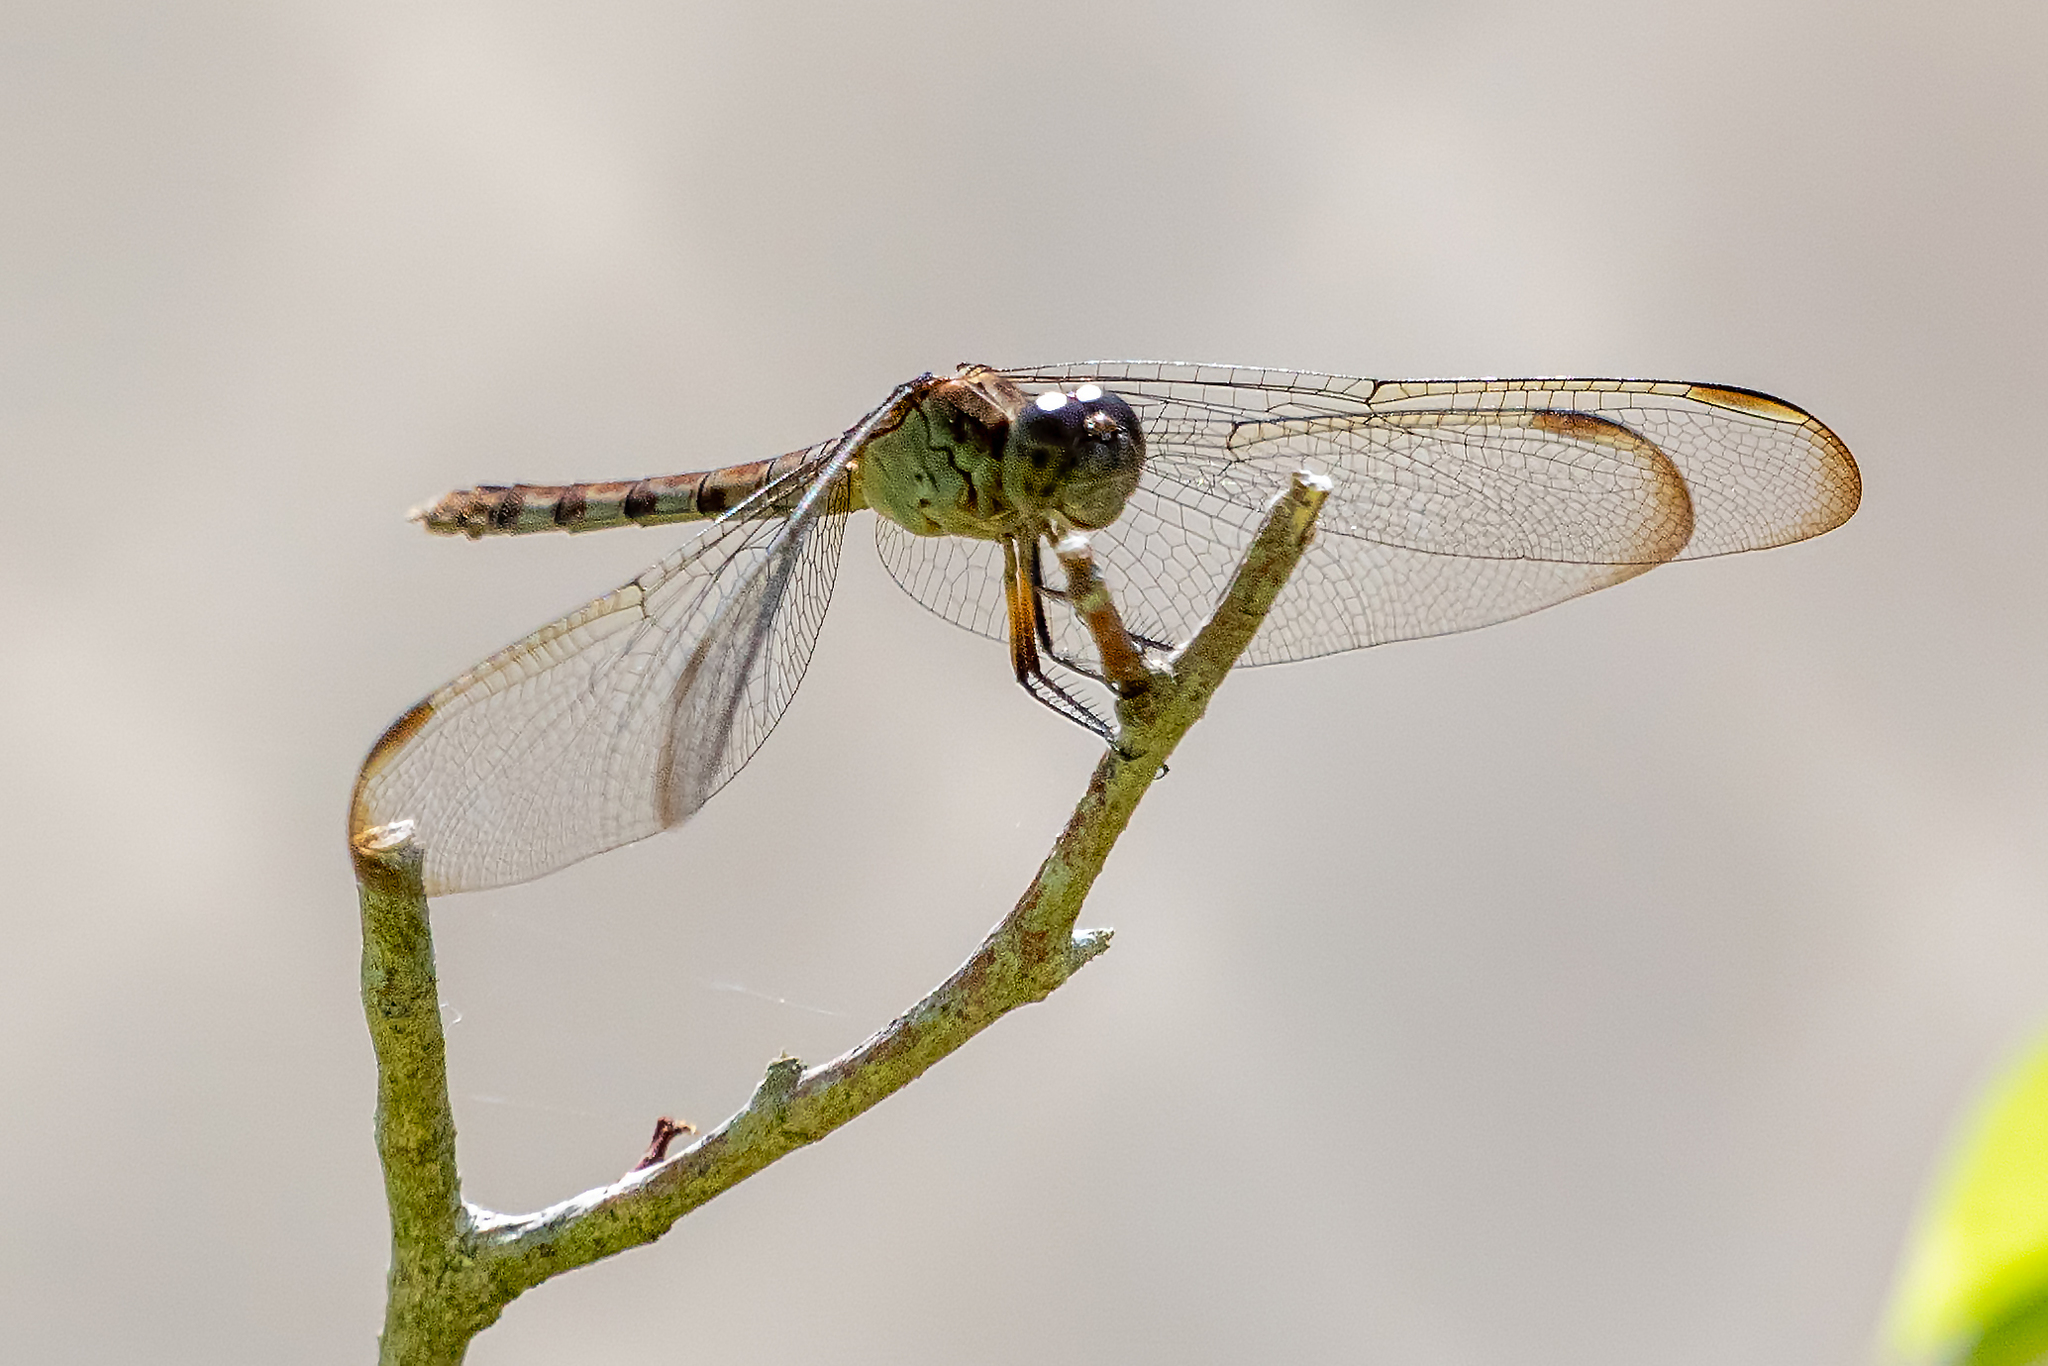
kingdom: Animalia
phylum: Arthropoda
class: Insecta
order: Odonata
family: Libellulidae
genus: Erythrodiplax
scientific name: Erythrodiplax umbrata
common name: Band-winged dragonlet
